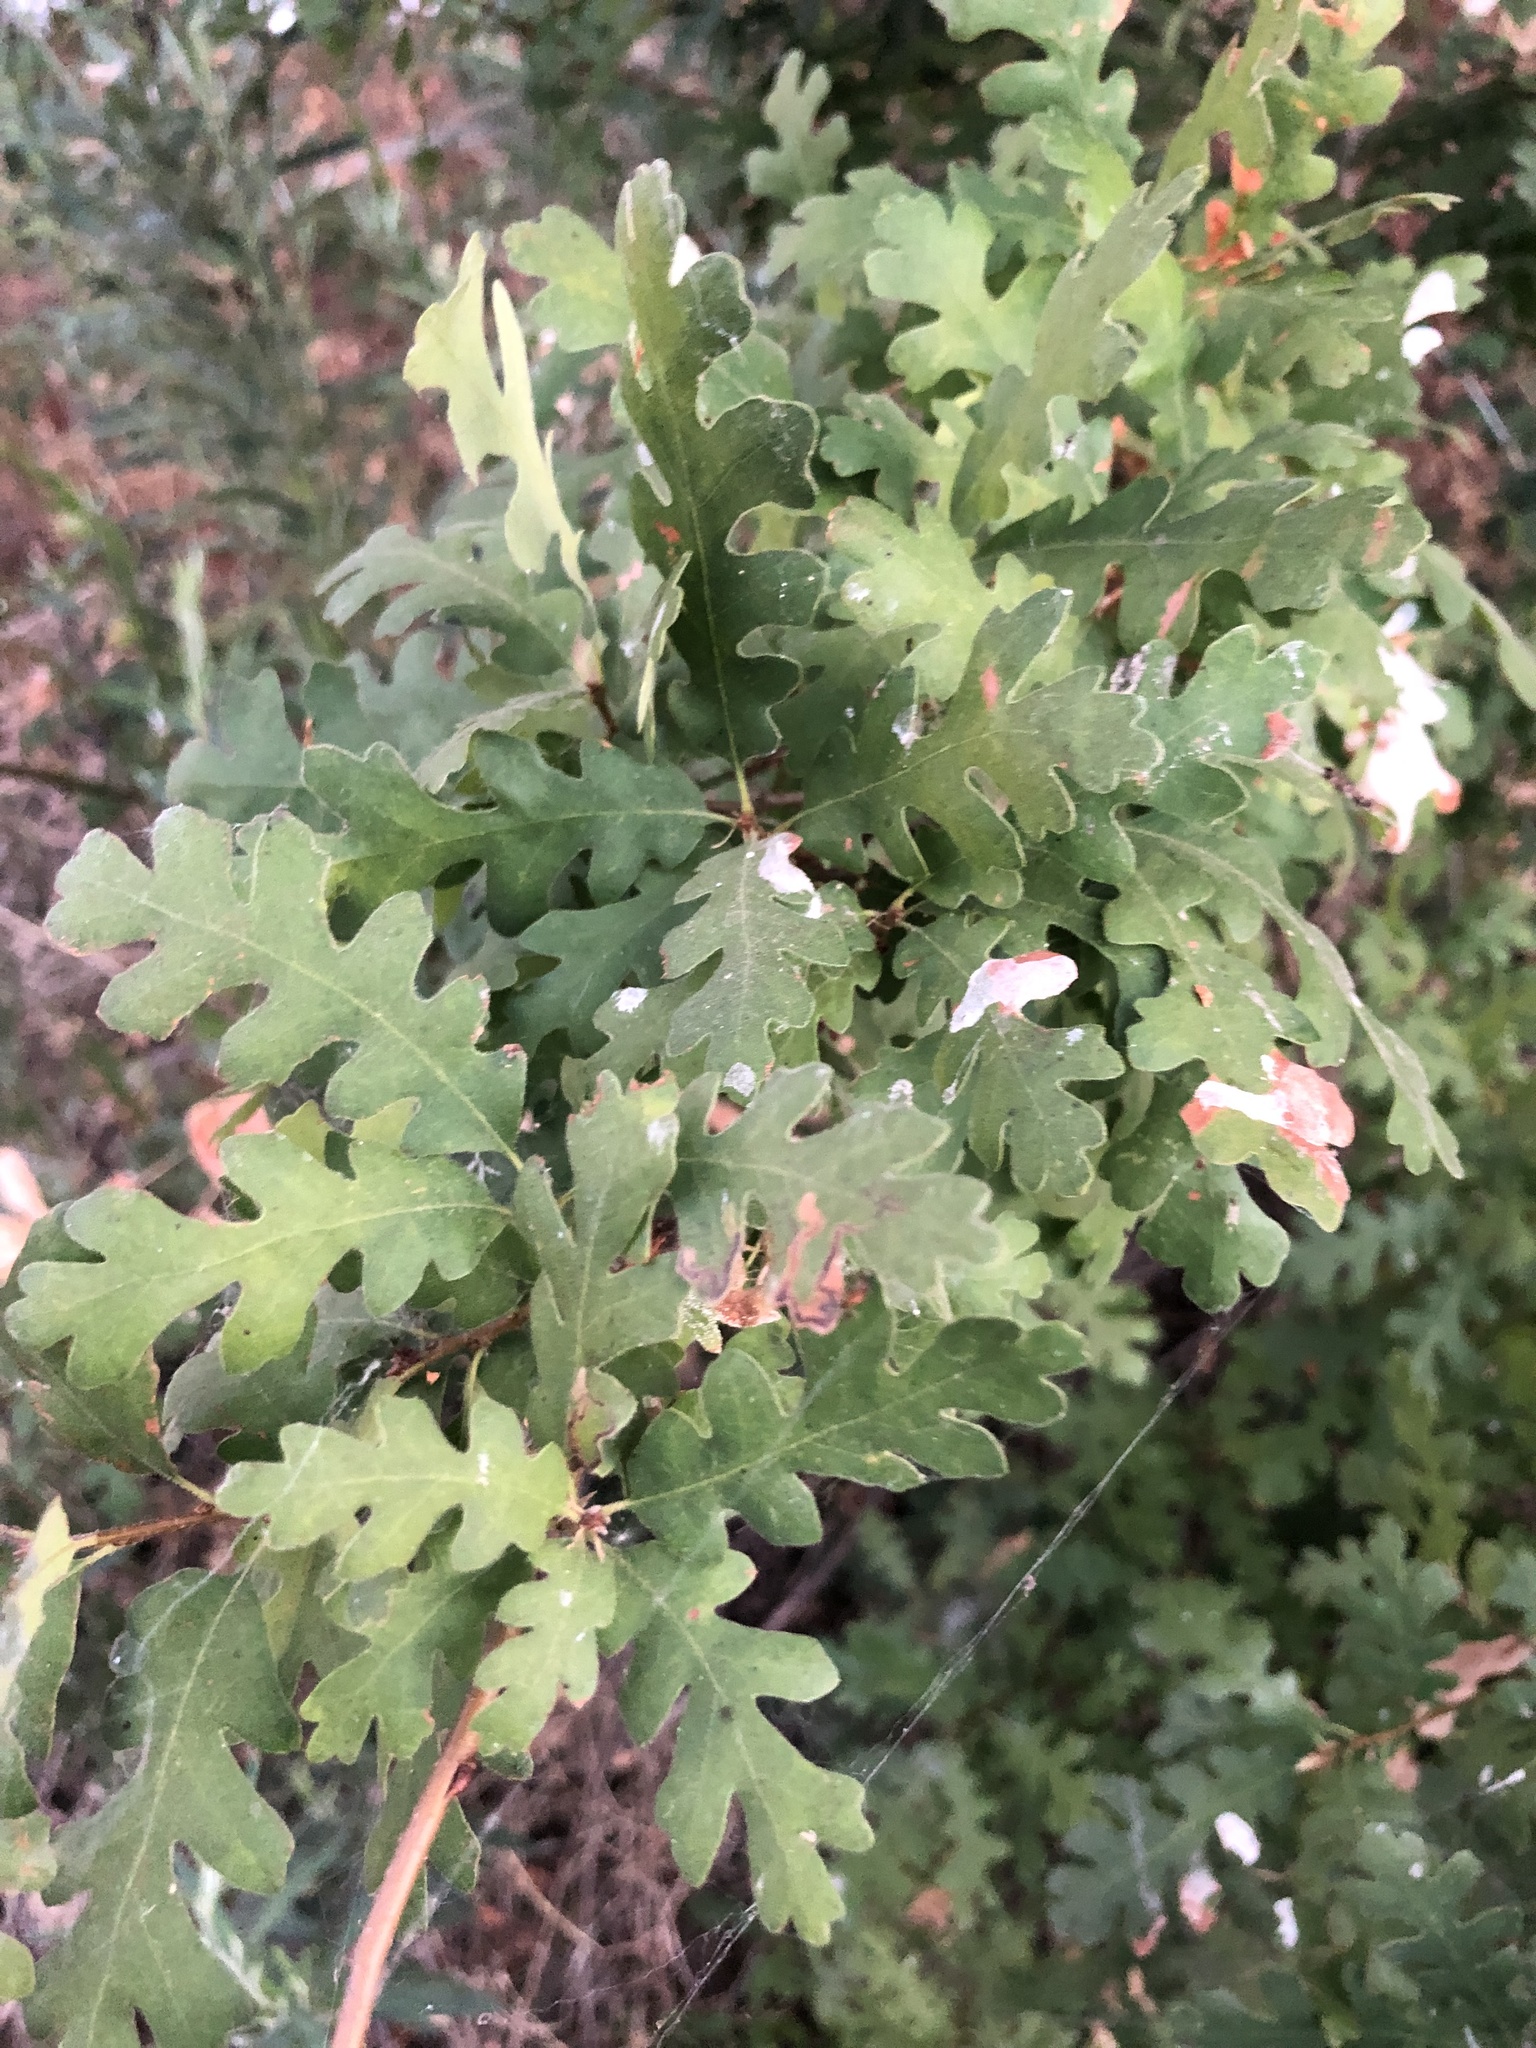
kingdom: Plantae
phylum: Tracheophyta
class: Magnoliopsida
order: Fagales
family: Fagaceae
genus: Quercus
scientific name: Quercus lobata
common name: Valley oak
